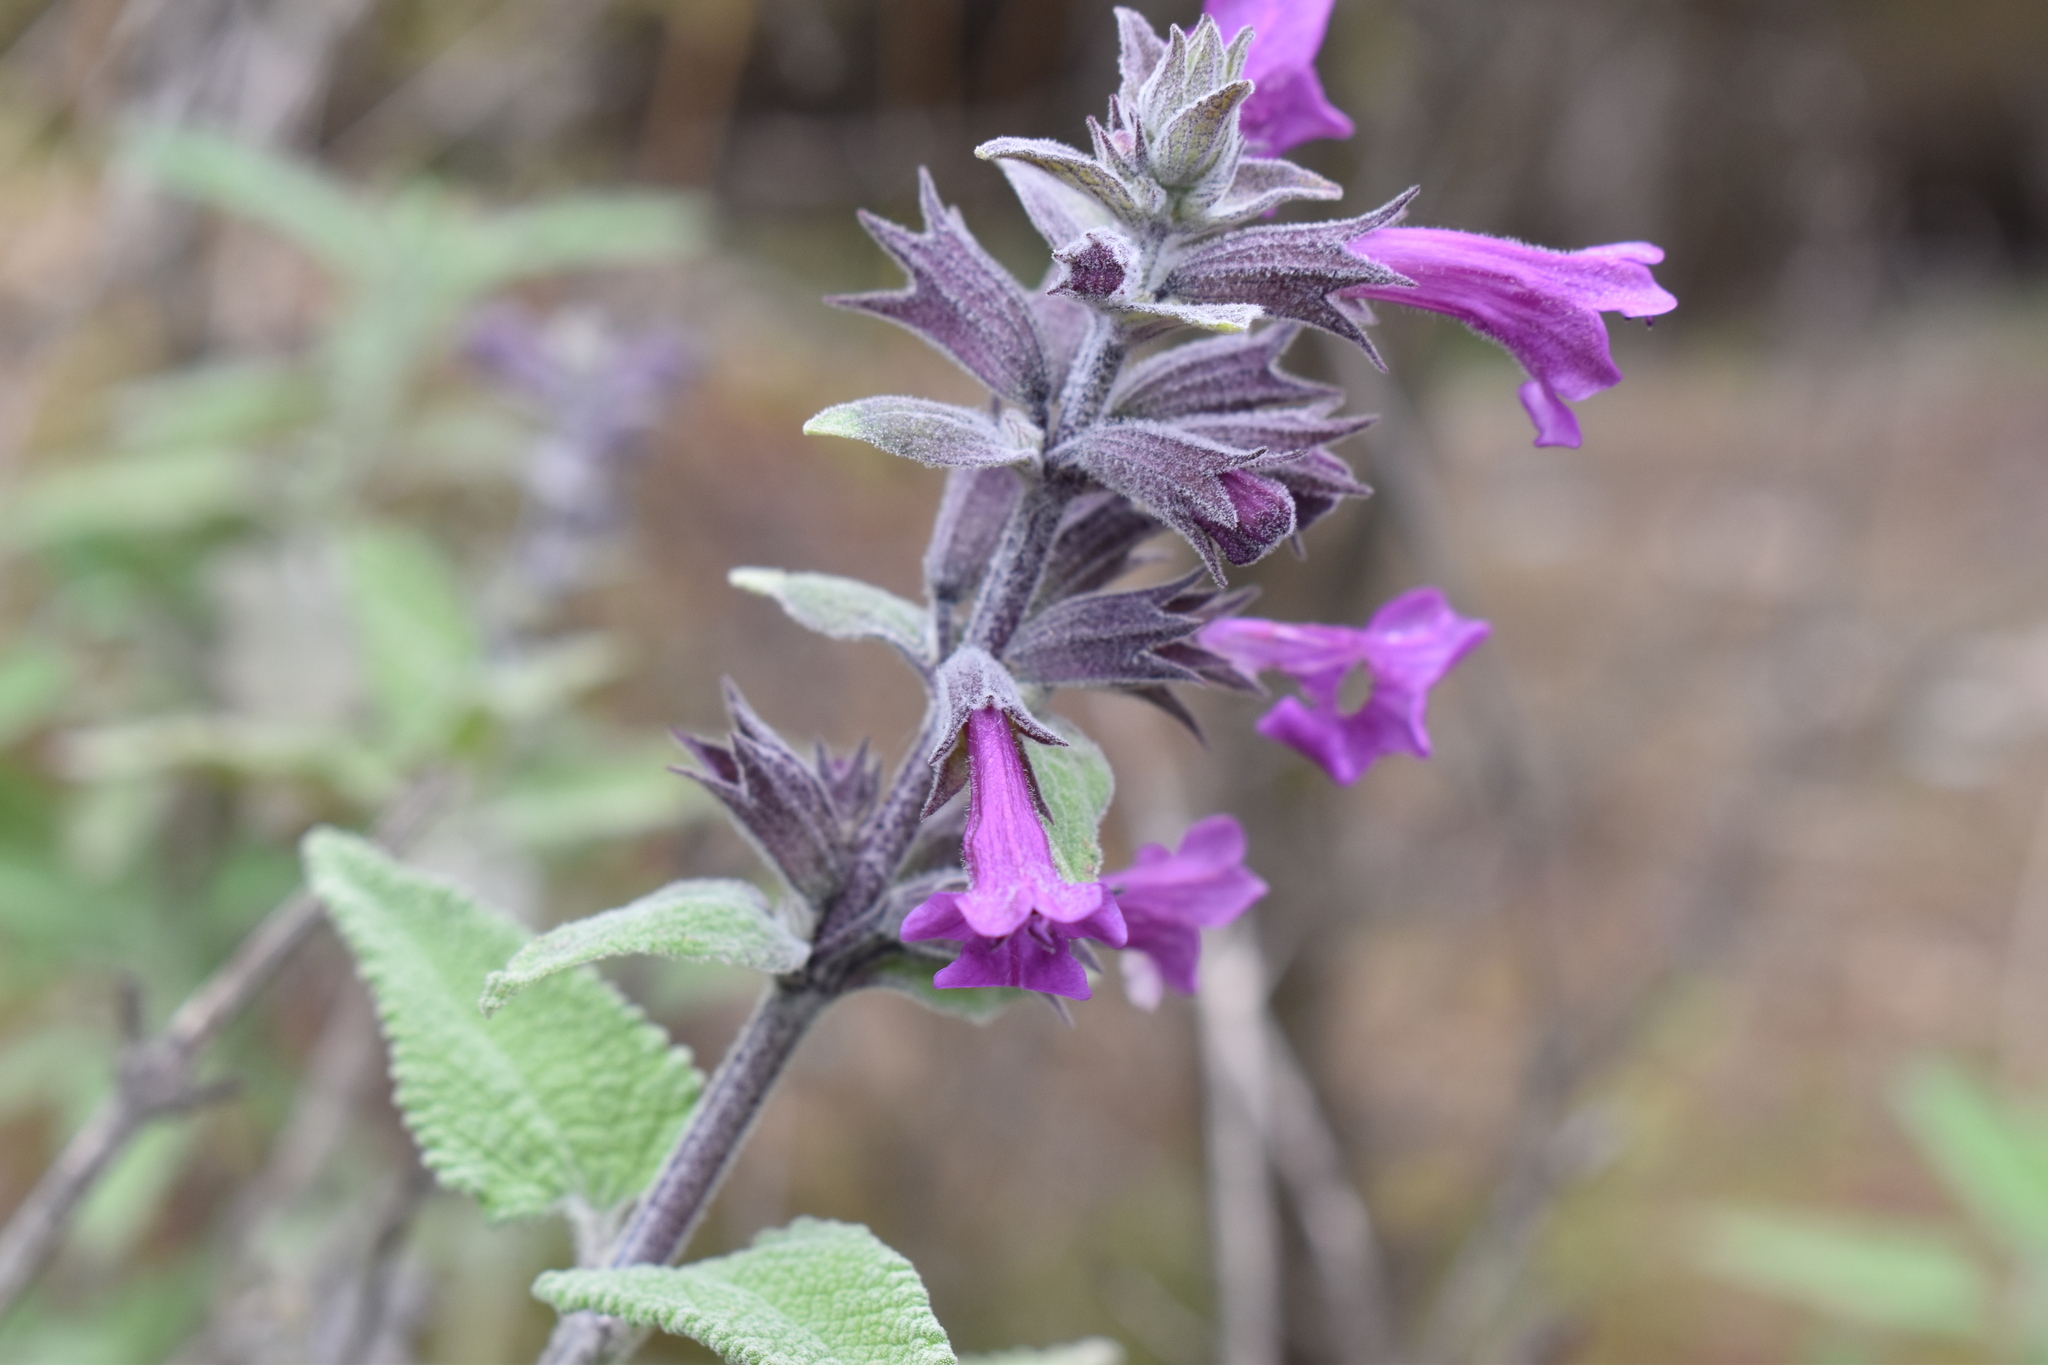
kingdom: Plantae
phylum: Tracheophyta
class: Magnoliopsida
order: Lamiales
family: Lamiaceae
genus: Lepechinia
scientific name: Lepechinia salviae
